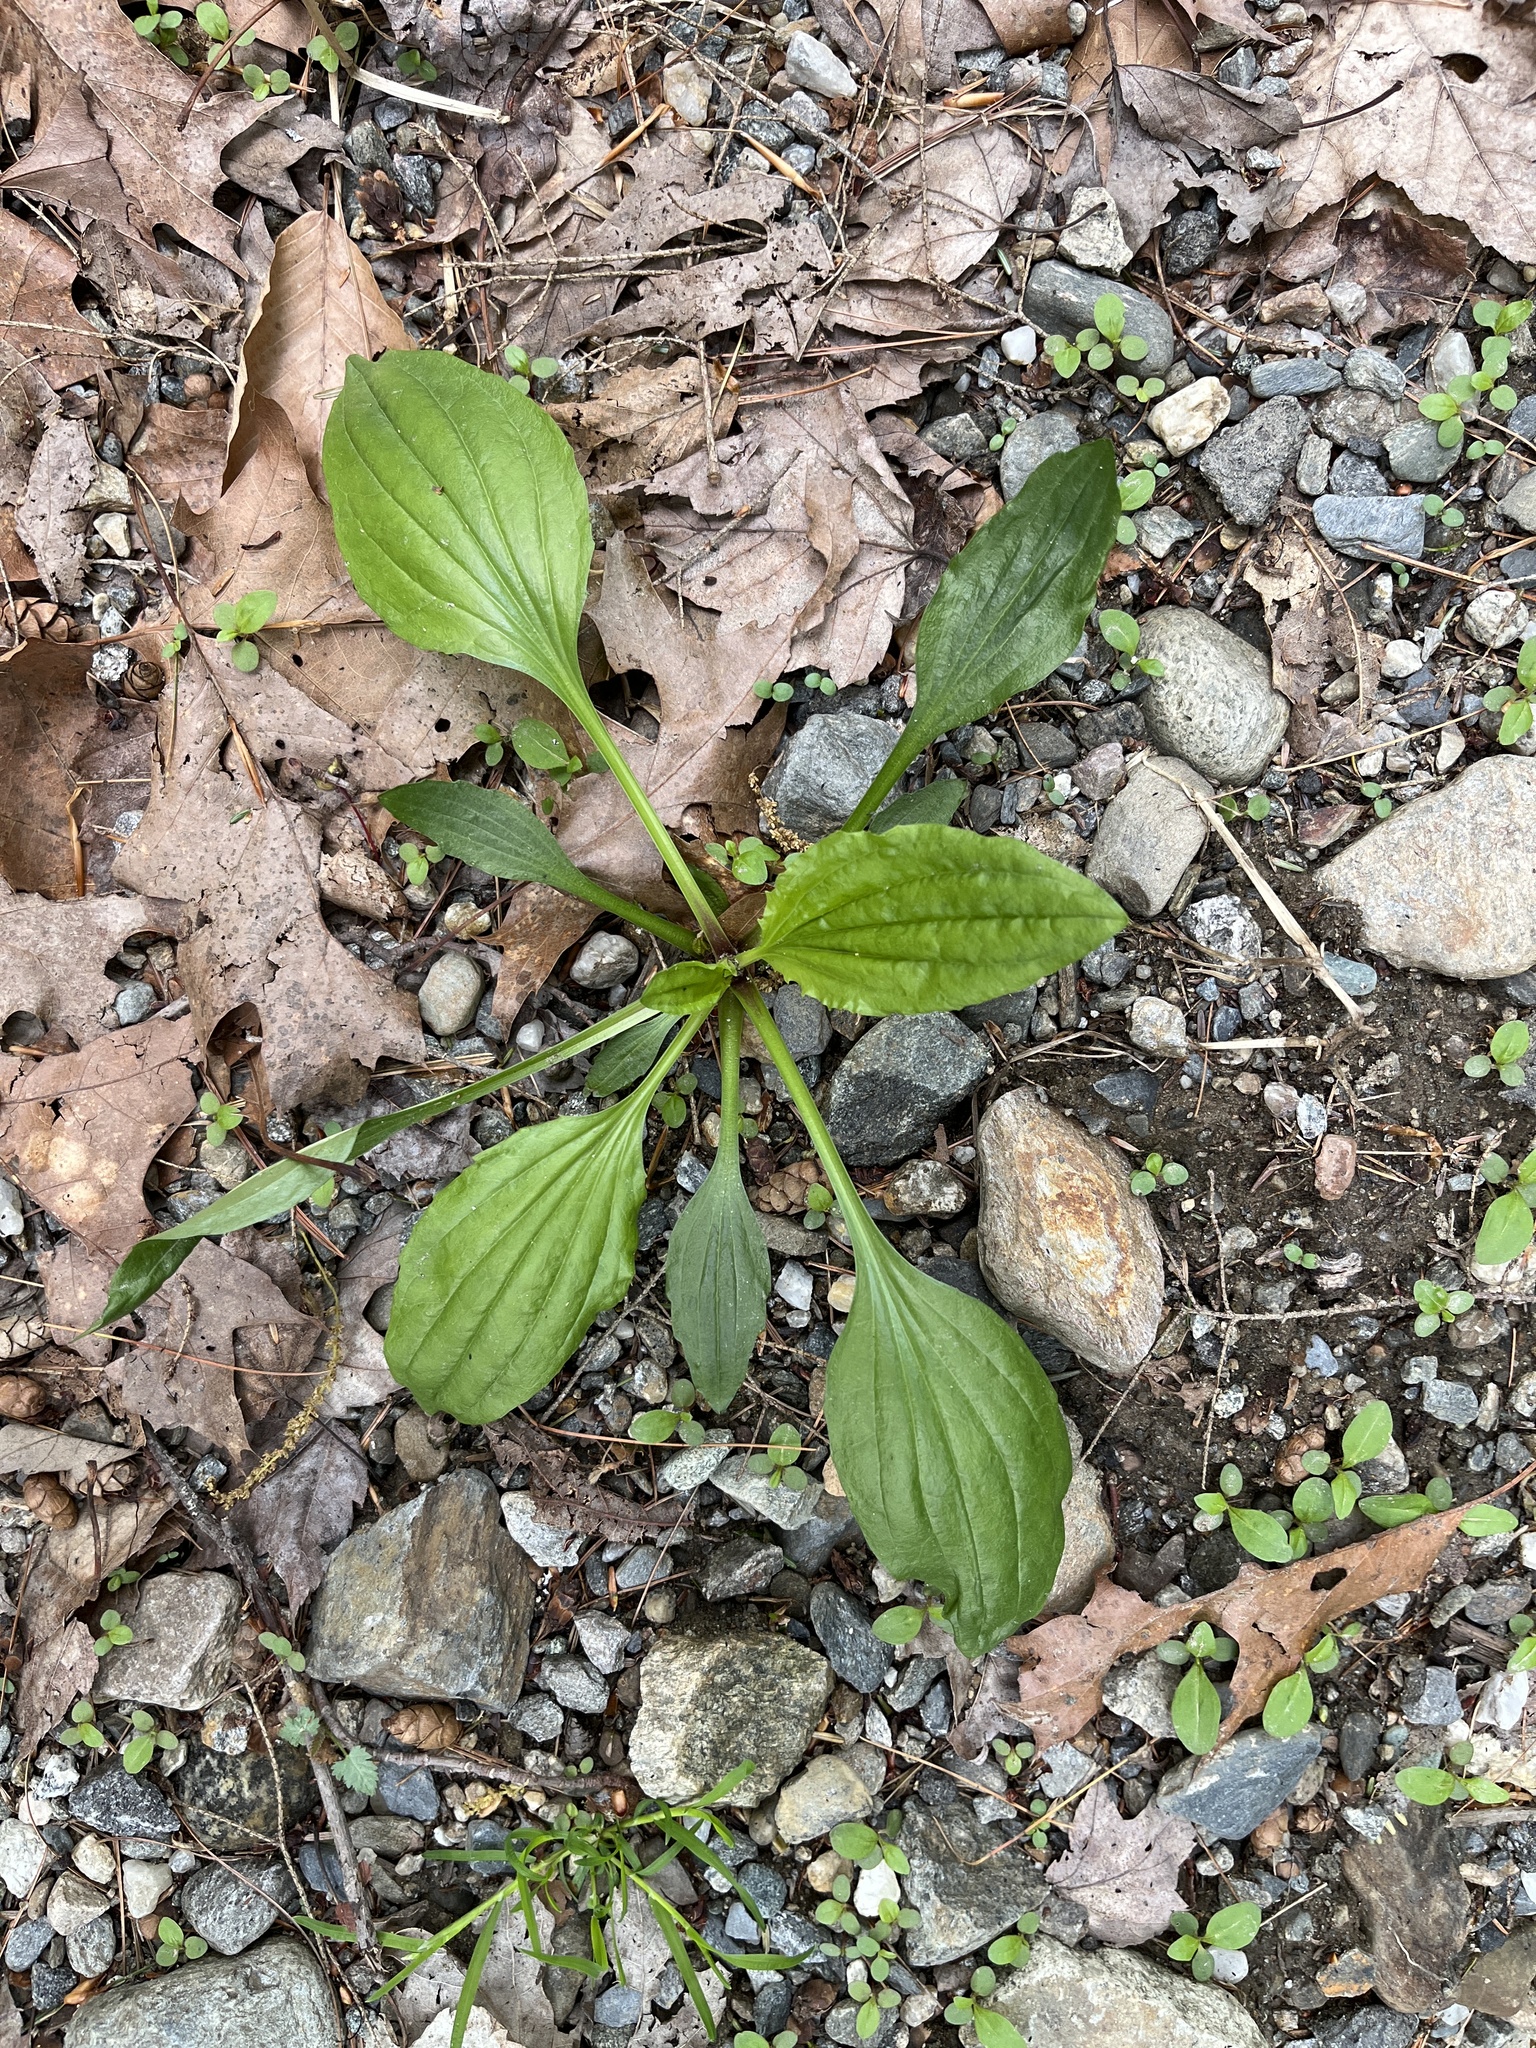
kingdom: Plantae
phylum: Tracheophyta
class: Magnoliopsida
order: Lamiales
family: Plantaginaceae
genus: Plantago
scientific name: Plantago rugelii
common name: American plantain
